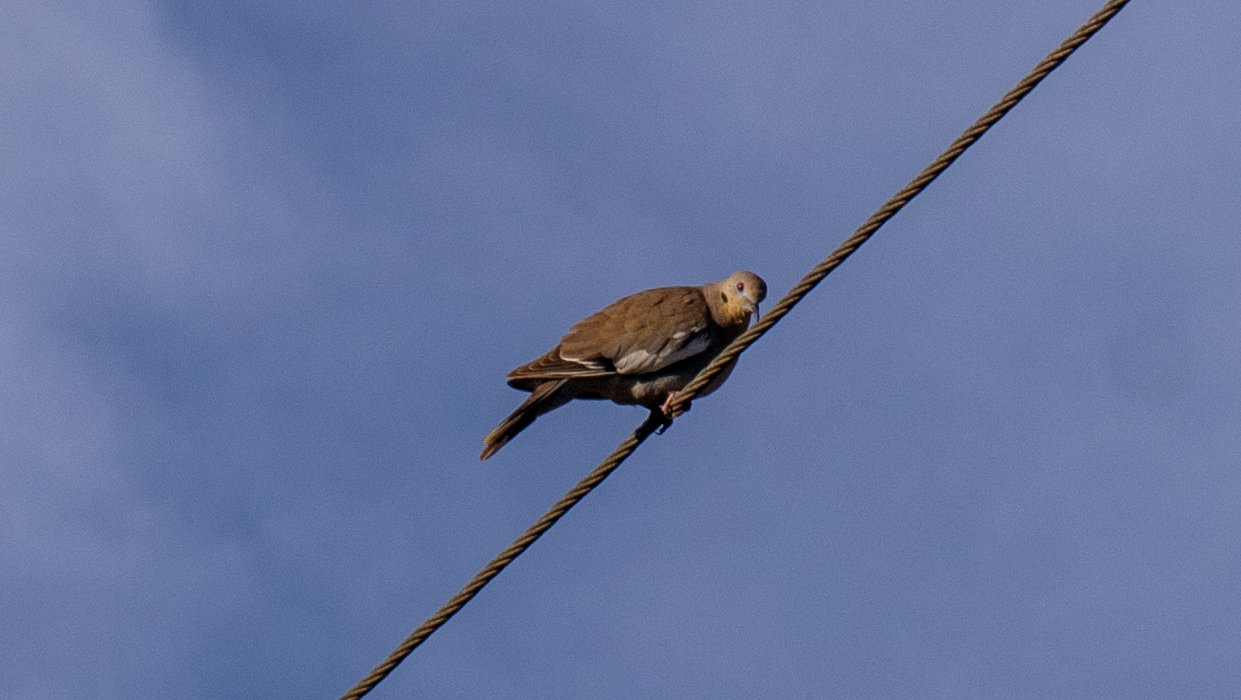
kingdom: Animalia
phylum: Chordata
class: Aves
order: Columbiformes
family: Columbidae
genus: Zenaida
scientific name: Zenaida asiatica
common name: White-winged dove
